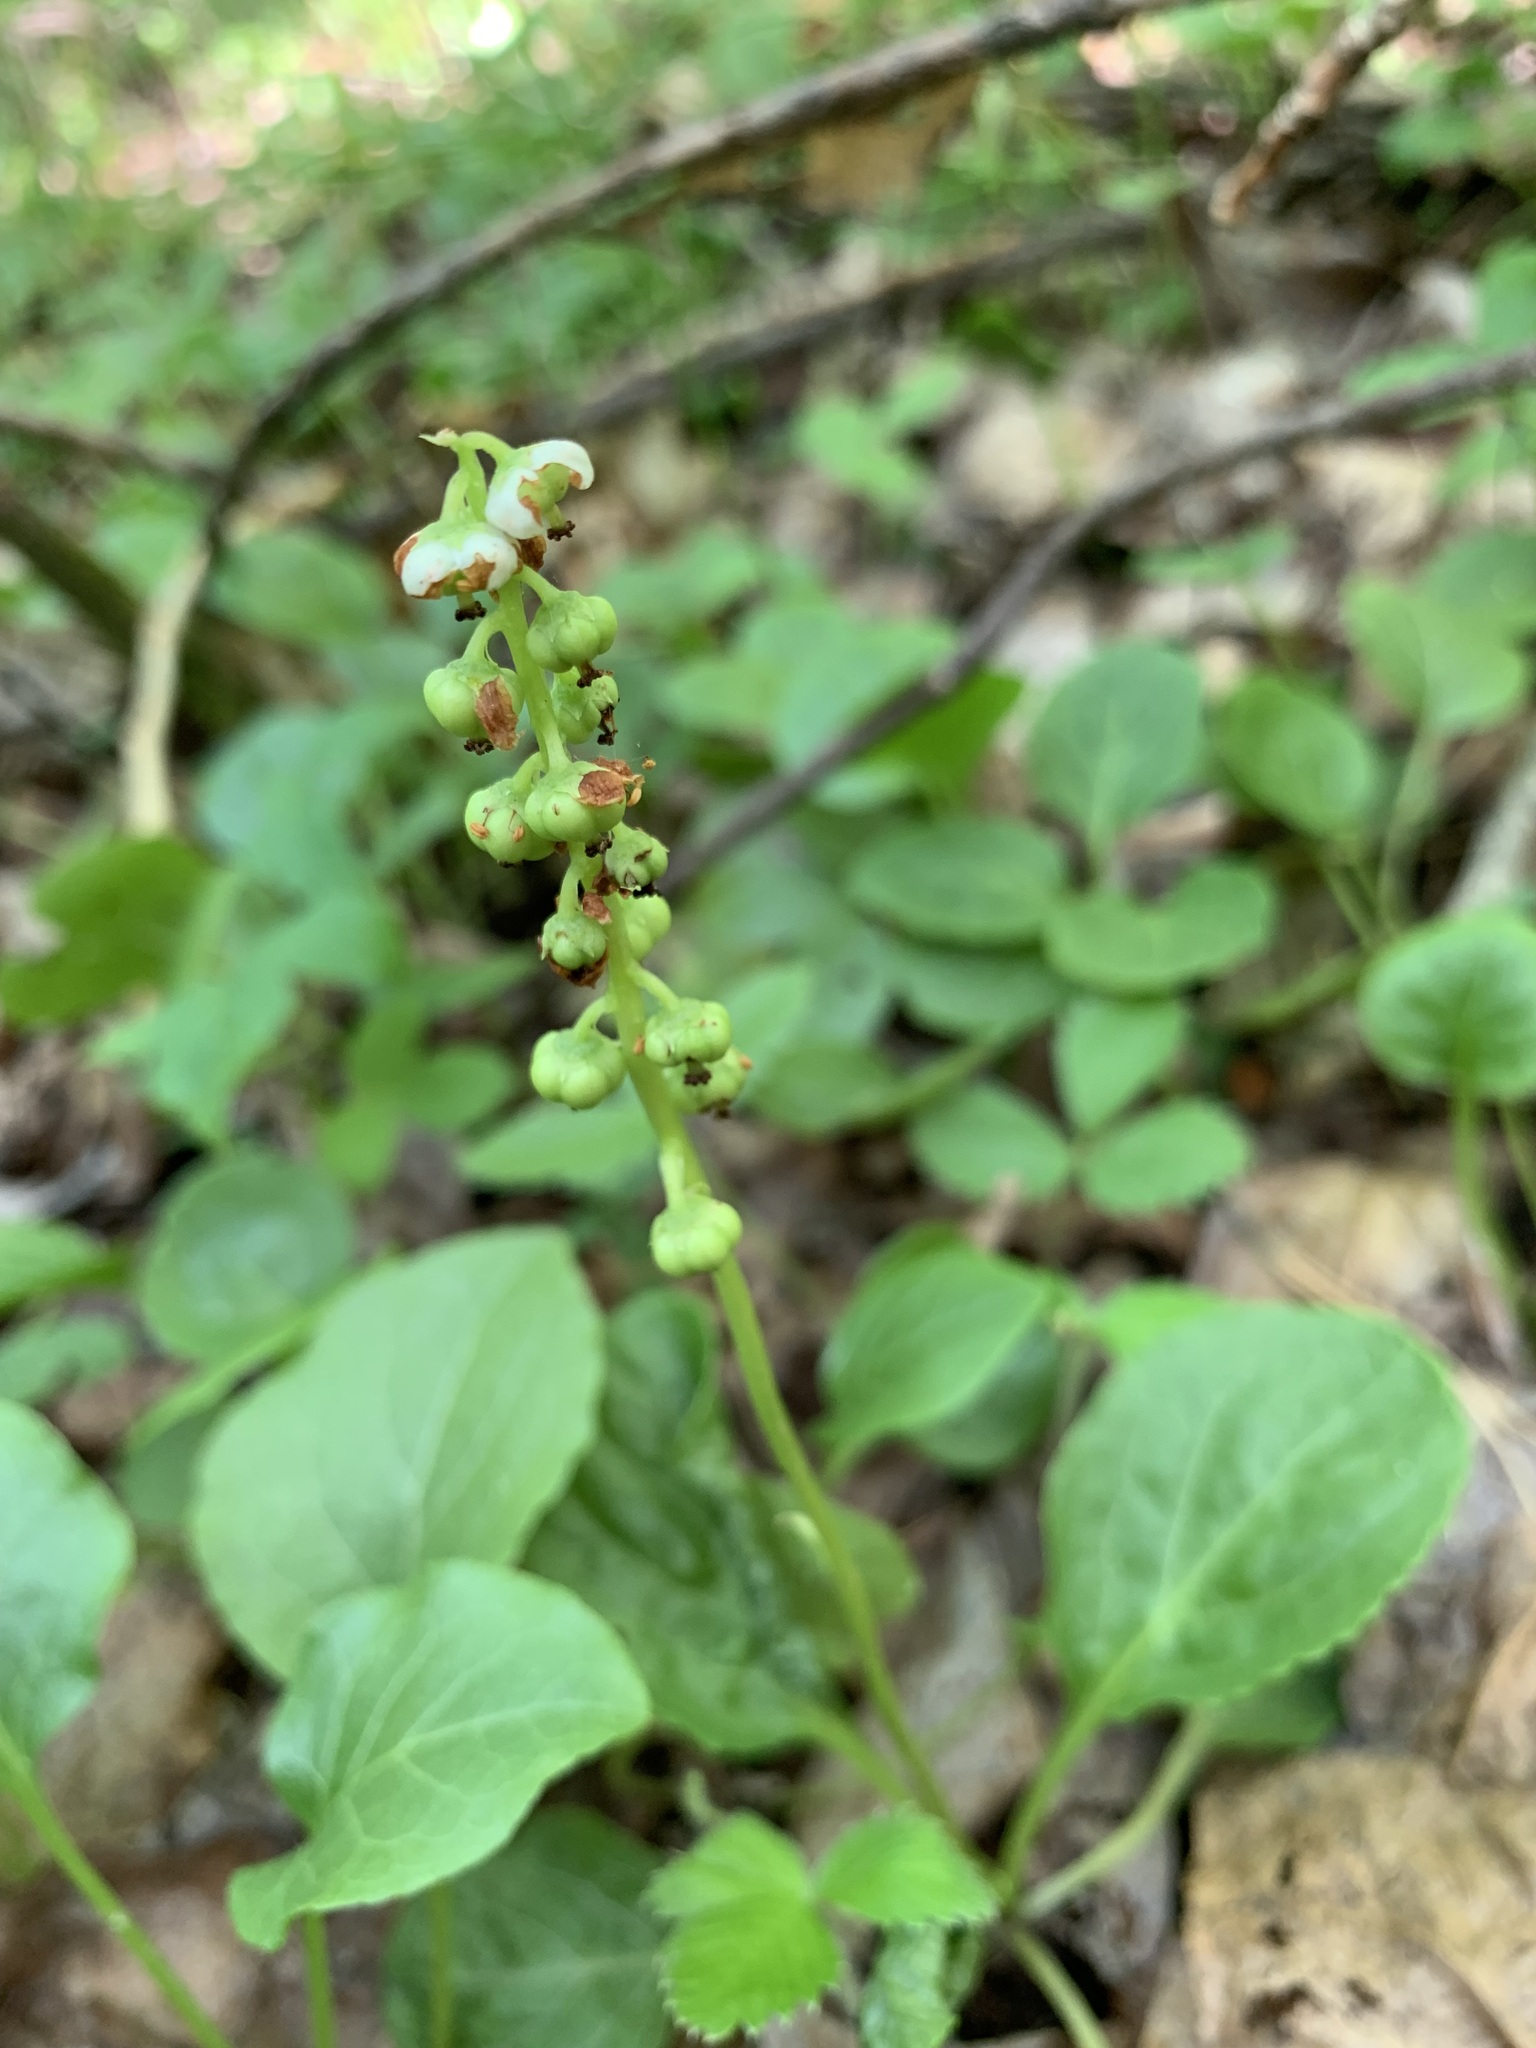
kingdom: Plantae
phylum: Tracheophyta
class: Magnoliopsida
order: Ericales
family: Ericaceae
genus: Pyrola
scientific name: Pyrola minor
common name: Common wintergreen
